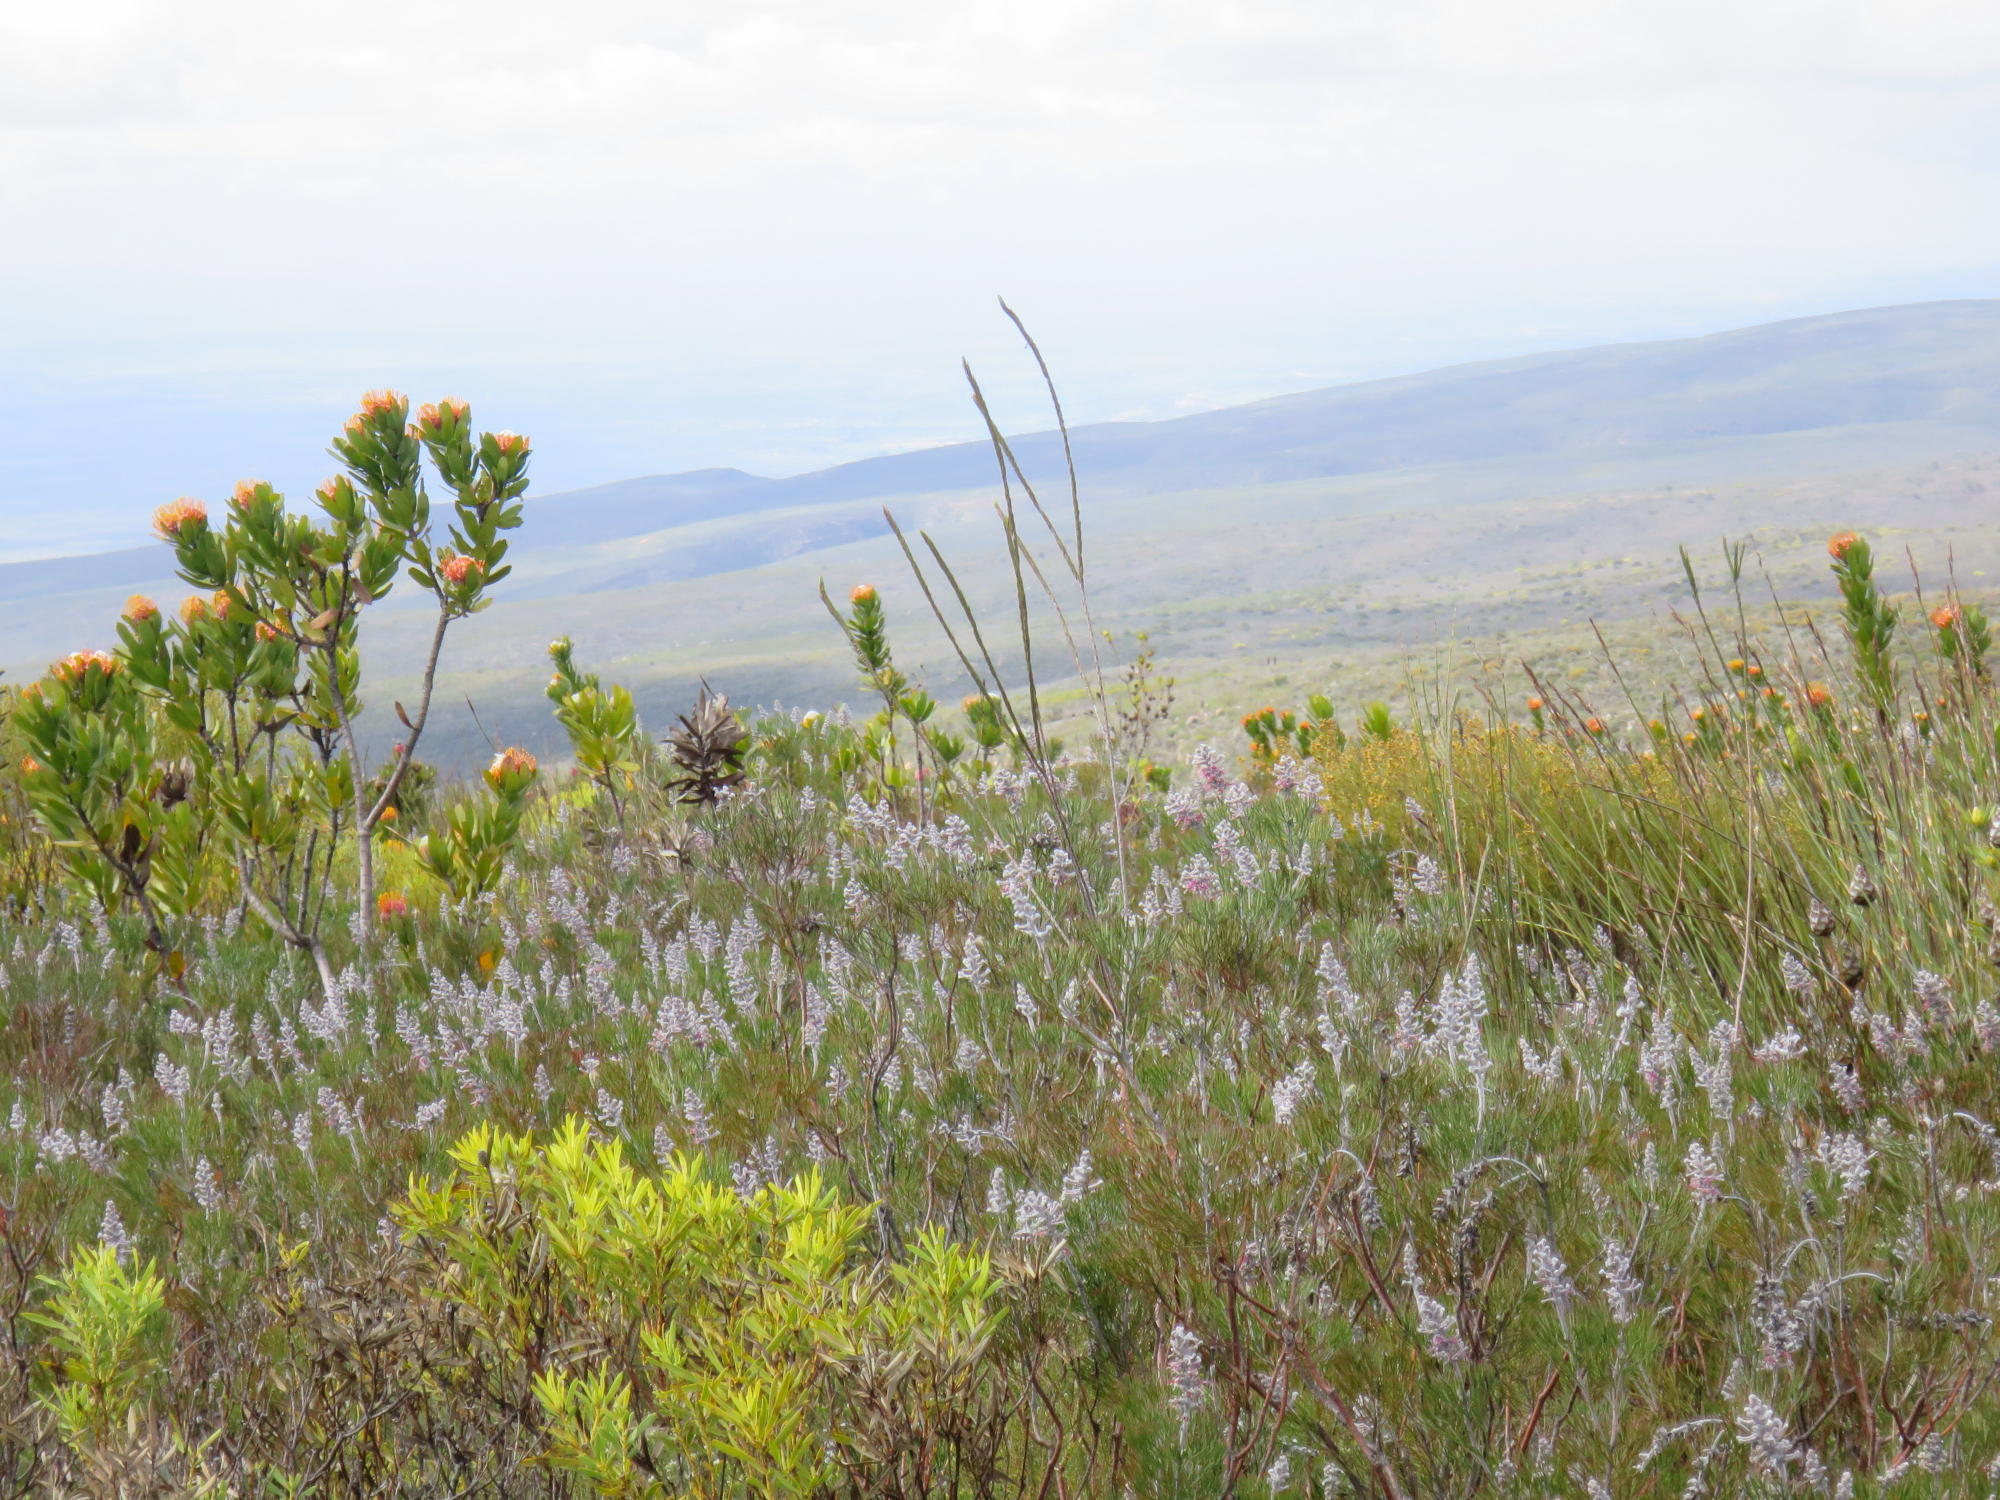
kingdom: Plantae
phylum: Tracheophyta
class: Magnoliopsida
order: Proteales
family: Proteaceae
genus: Leucospermum
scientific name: Leucospermum pluridens
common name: Robinson pincushion
